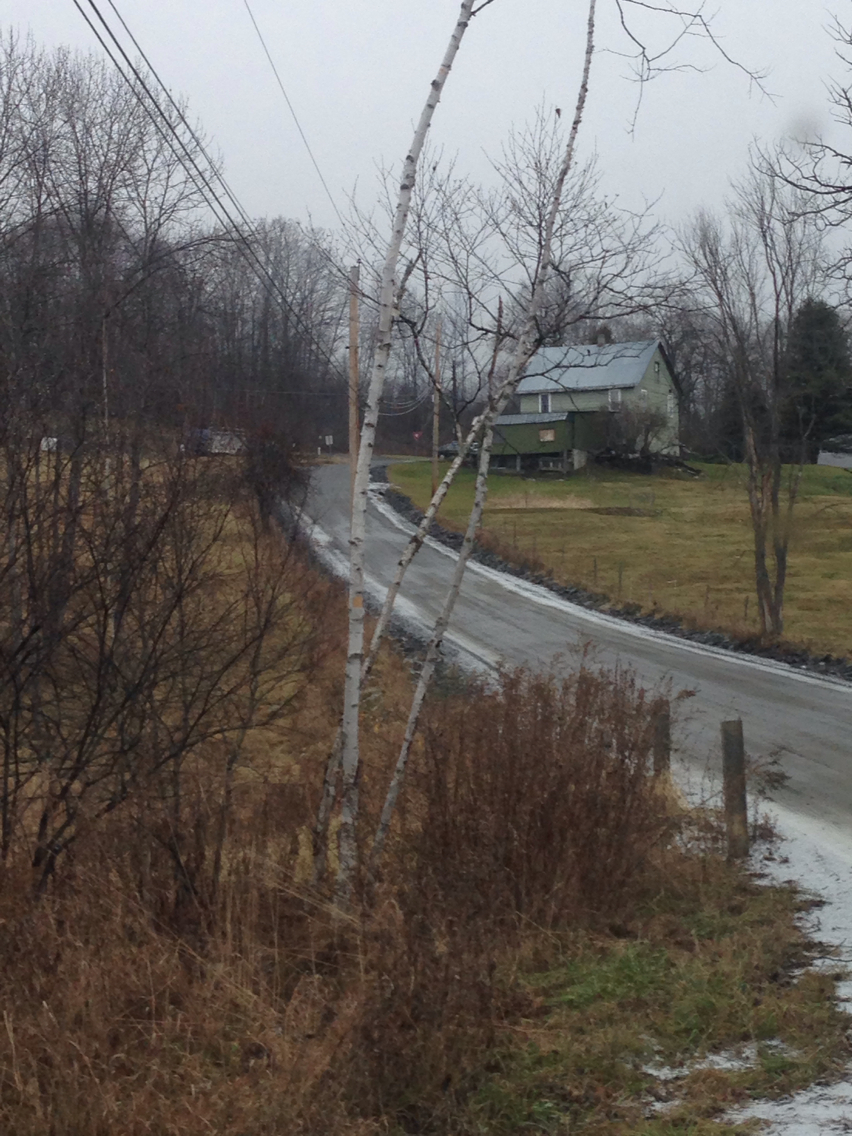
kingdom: Plantae
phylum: Tracheophyta
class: Magnoliopsida
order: Fagales
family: Betulaceae
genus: Betula
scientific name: Betula papyrifera
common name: Paper birch
